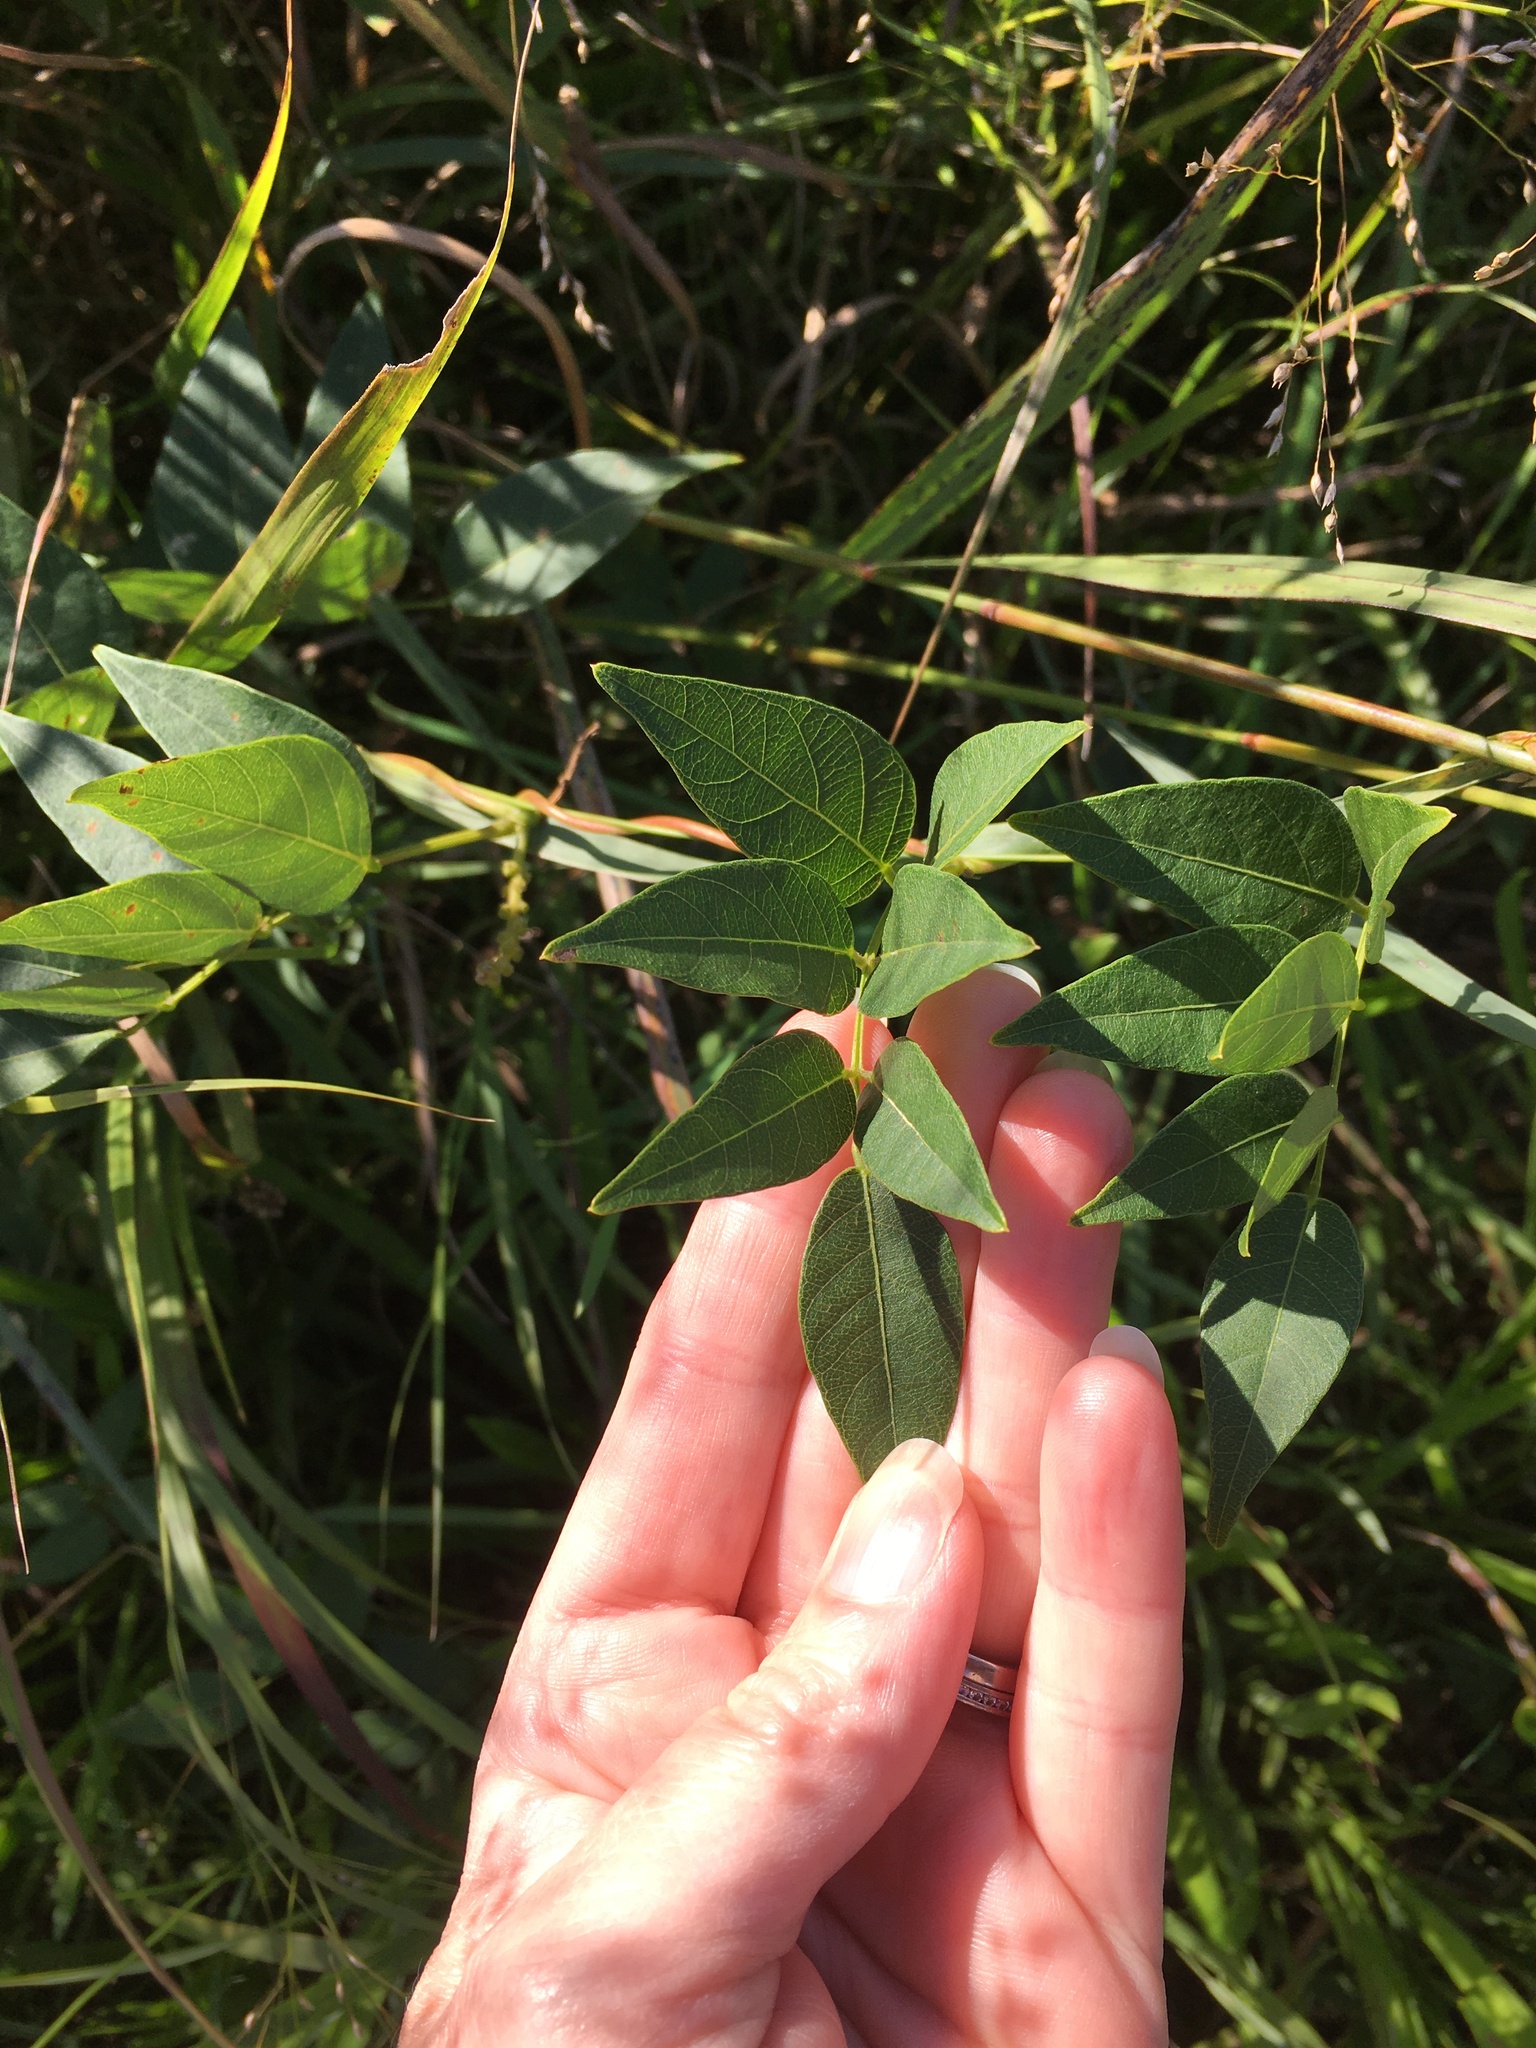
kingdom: Plantae
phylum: Tracheophyta
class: Magnoliopsida
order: Fabales
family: Fabaceae
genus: Apios
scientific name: Apios americana
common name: American potato-bean
